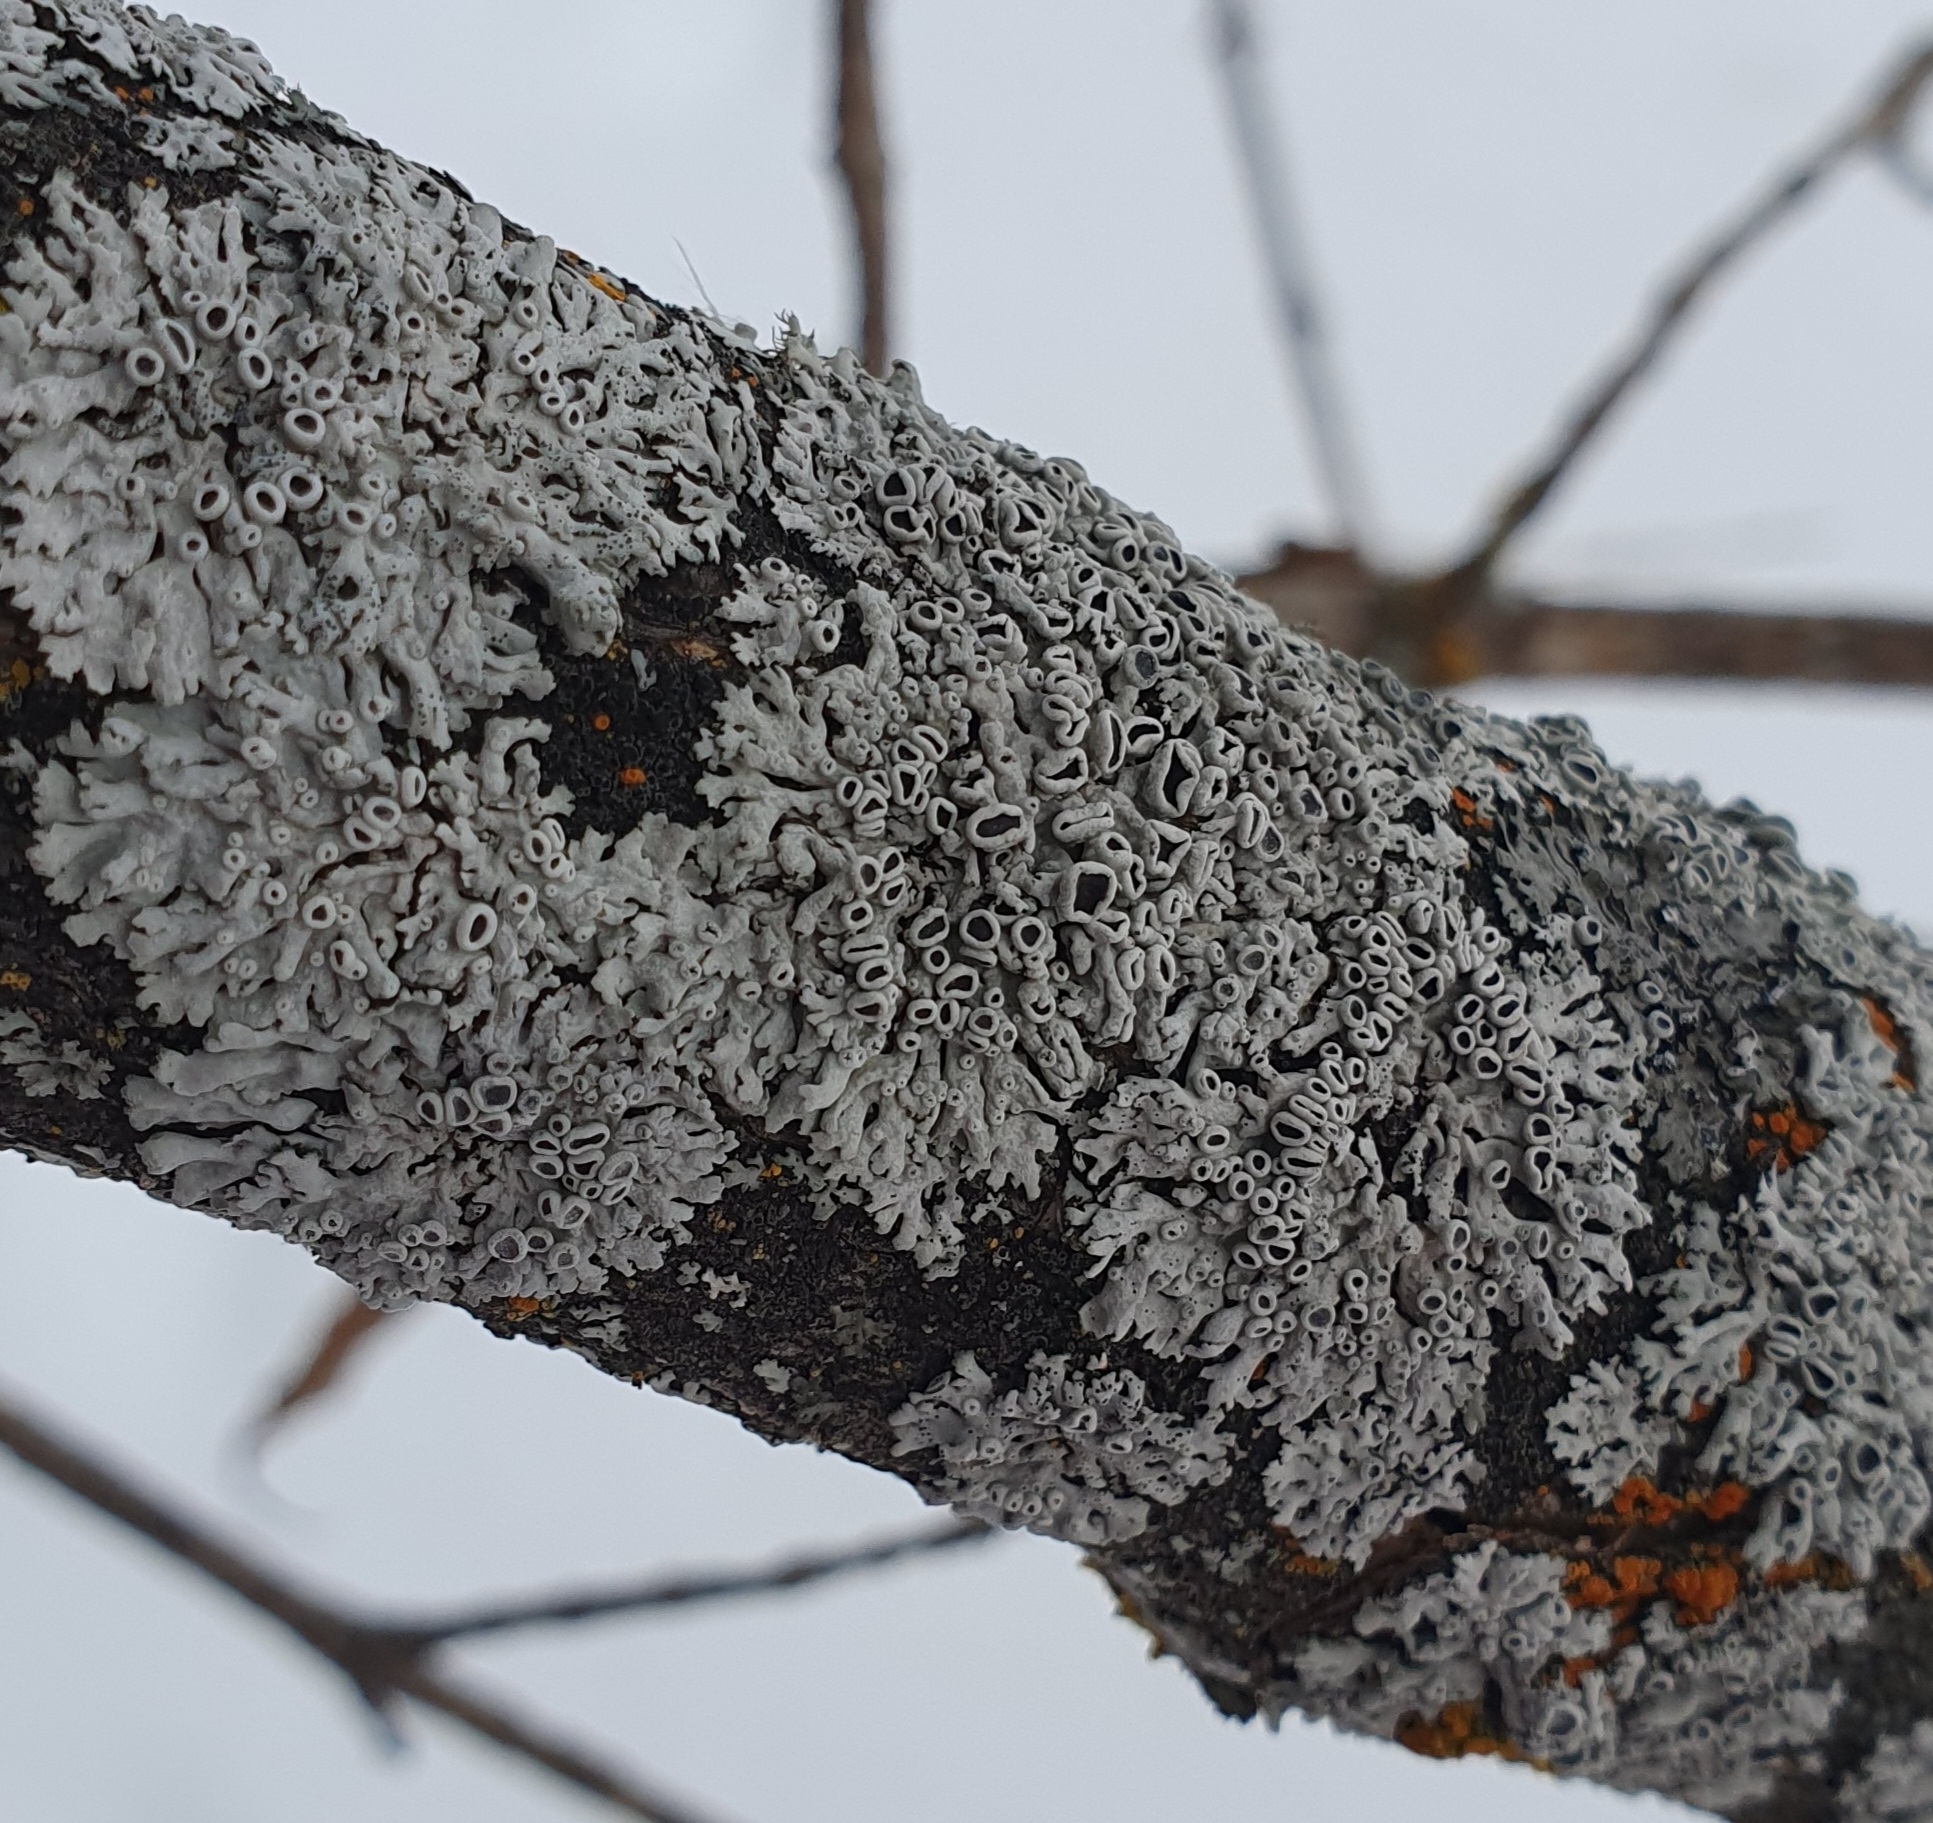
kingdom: Fungi
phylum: Ascomycota
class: Lecanoromycetes
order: Caliciales
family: Physciaceae
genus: Physcia
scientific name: Physcia stellaris
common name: Star rosette lichen
